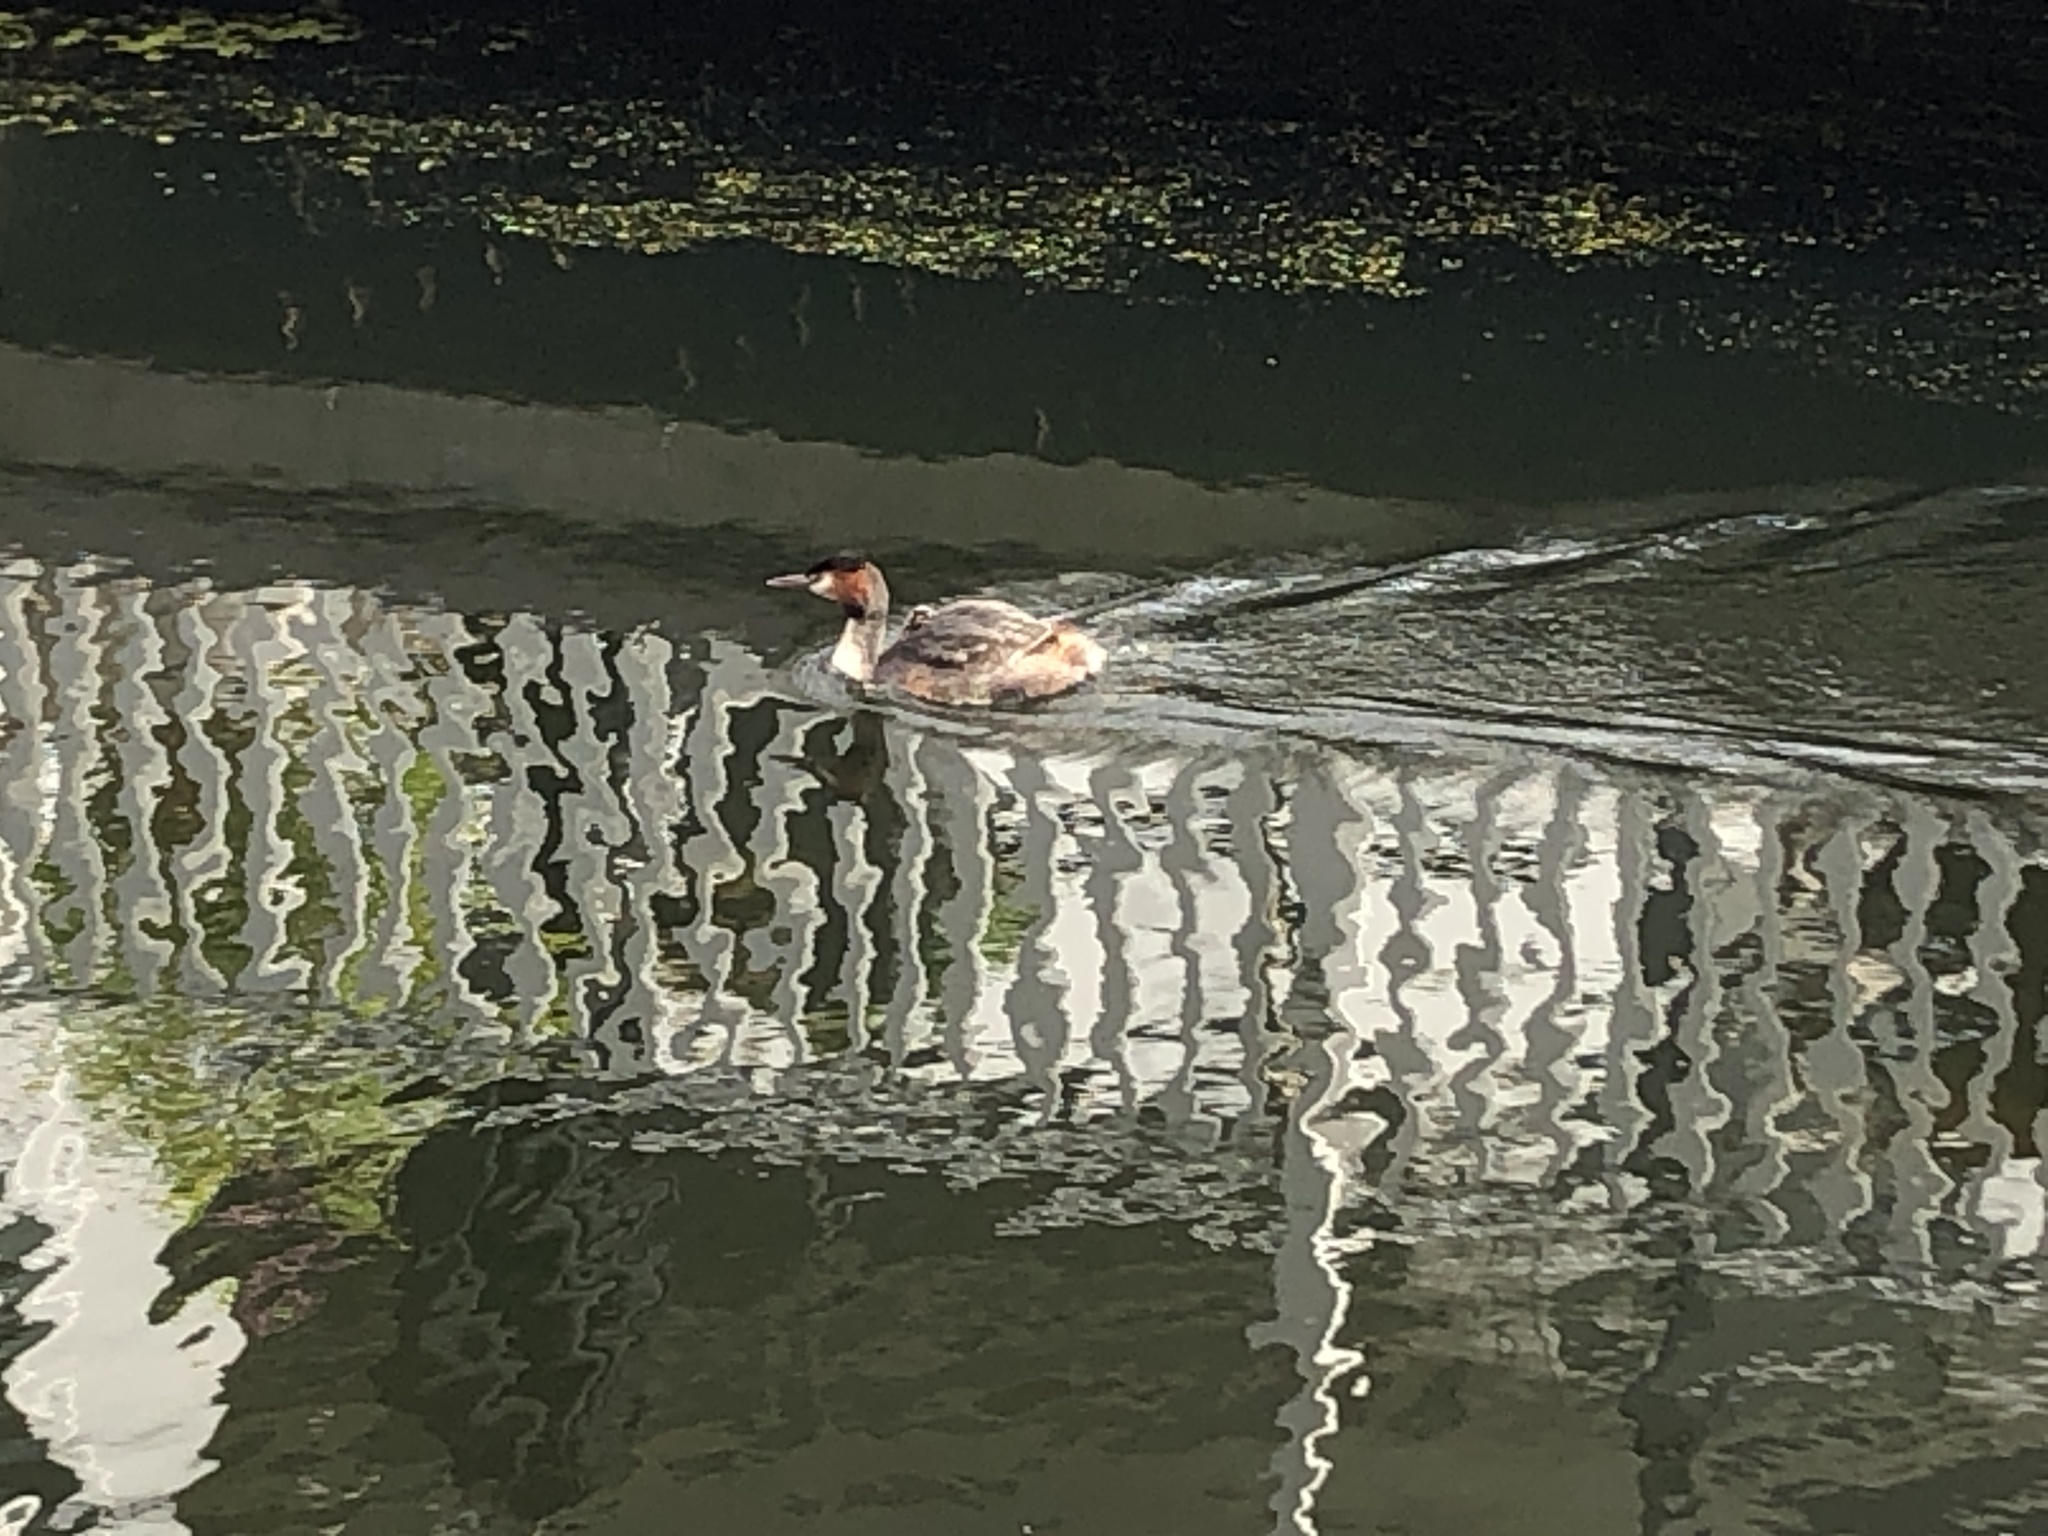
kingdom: Animalia
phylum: Chordata
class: Aves
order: Podicipediformes
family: Podicipedidae
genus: Podiceps
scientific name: Podiceps cristatus
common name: Great crested grebe
